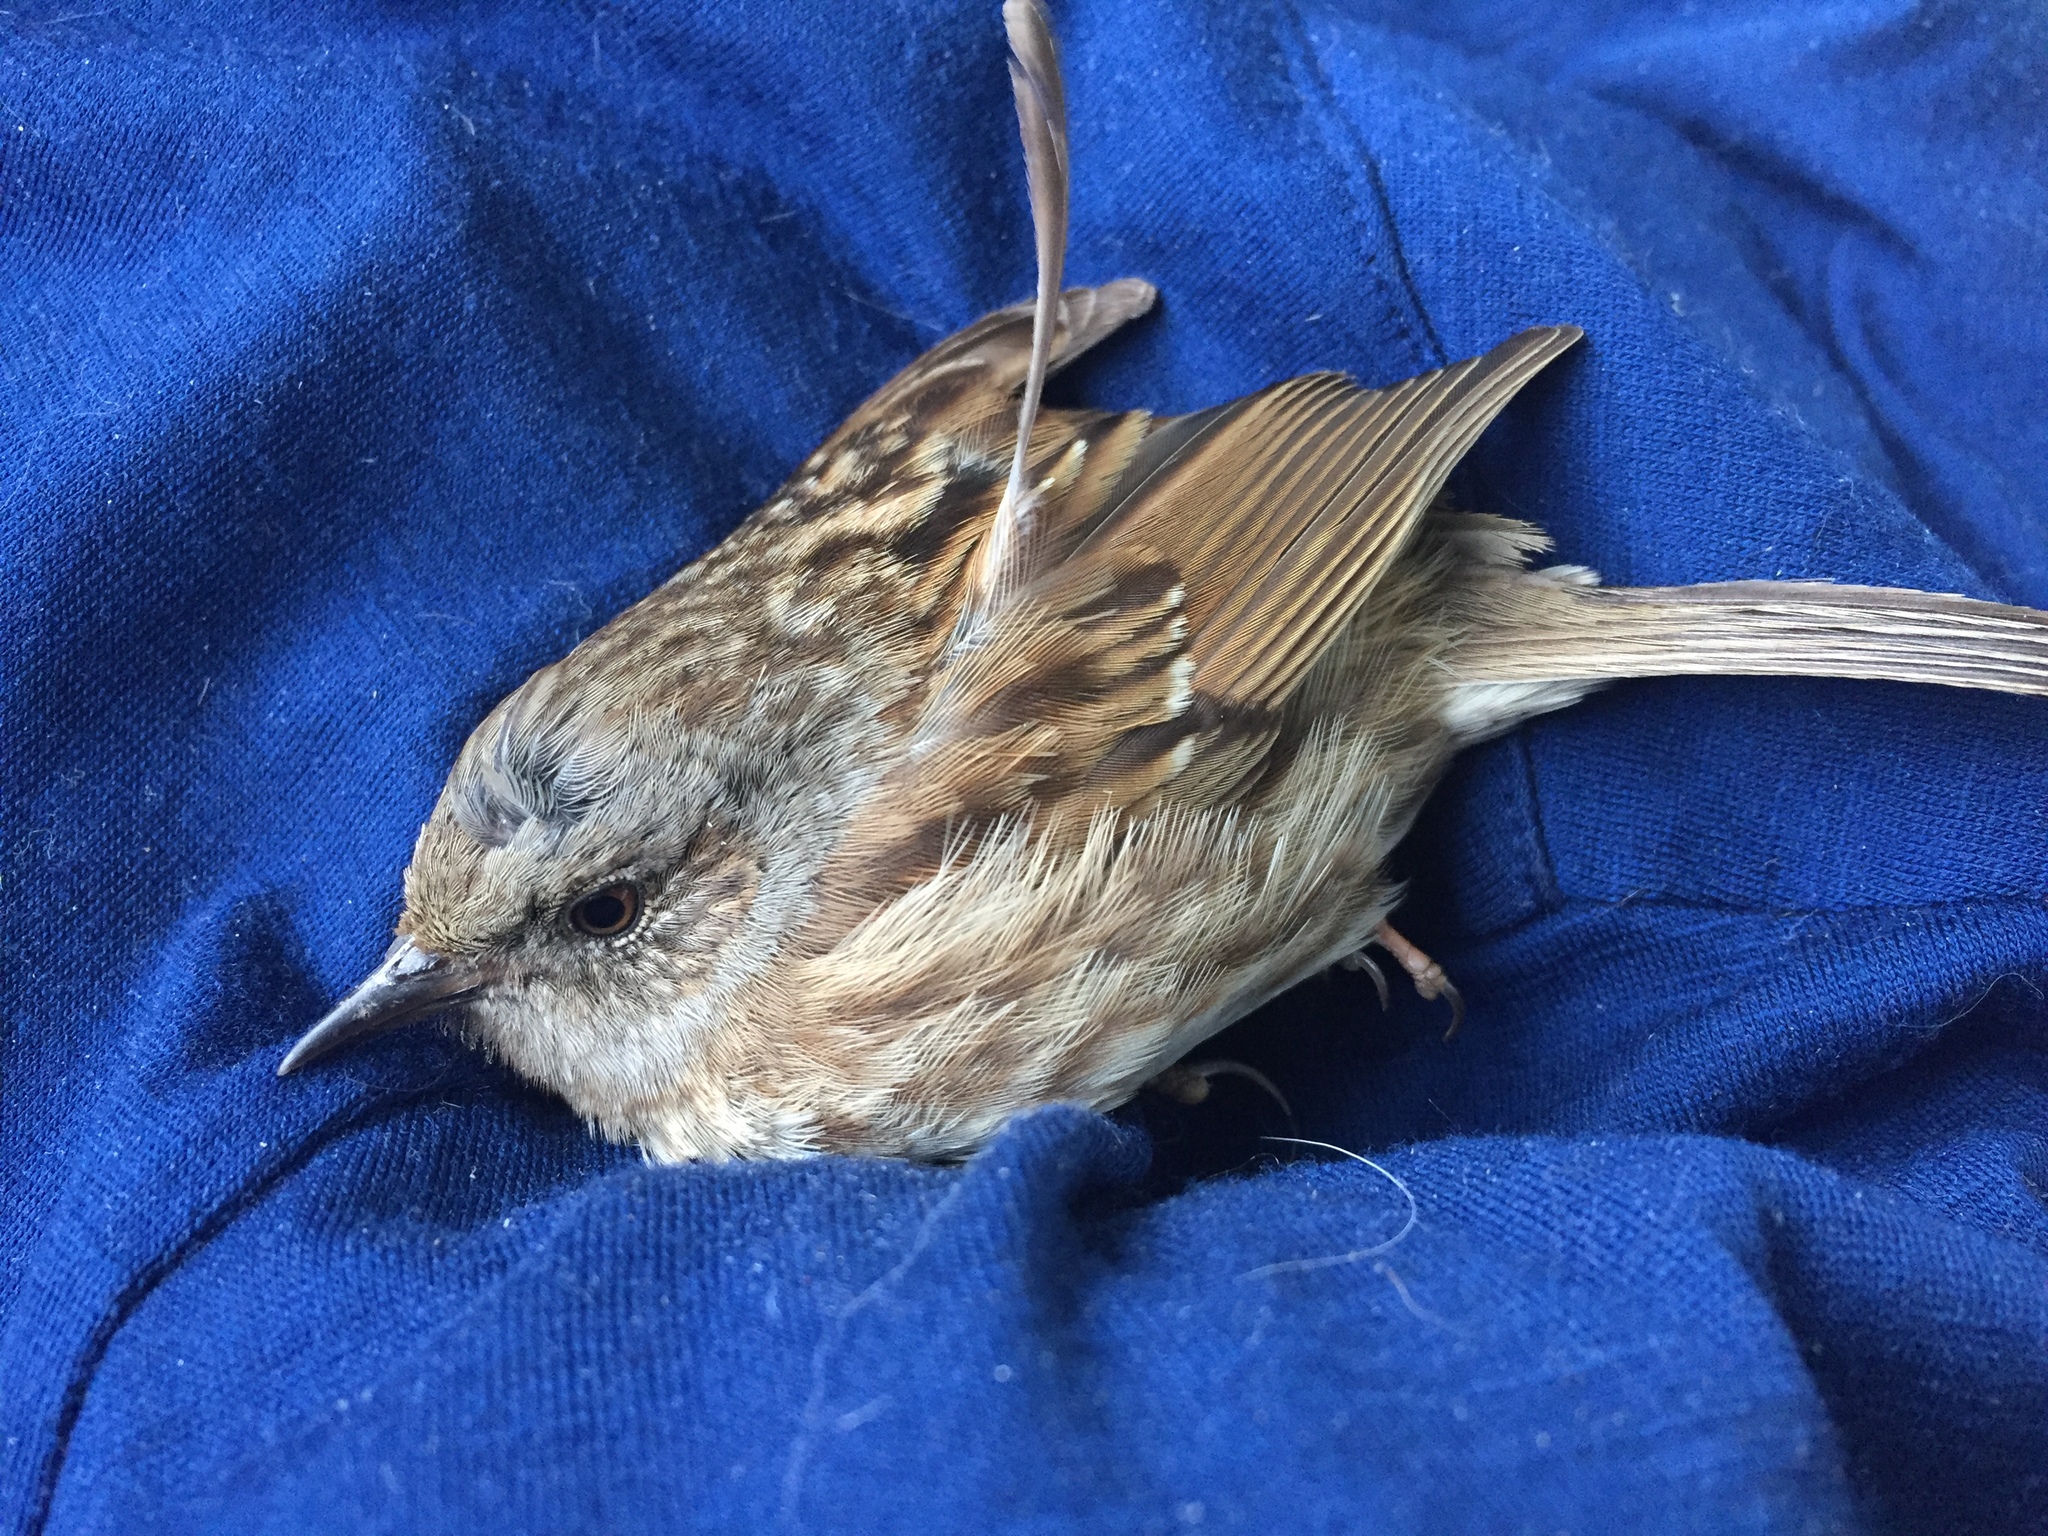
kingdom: Animalia
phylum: Chordata
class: Aves
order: Passeriformes
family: Prunellidae
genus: Prunella
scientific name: Prunella modularis
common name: Dunnock
